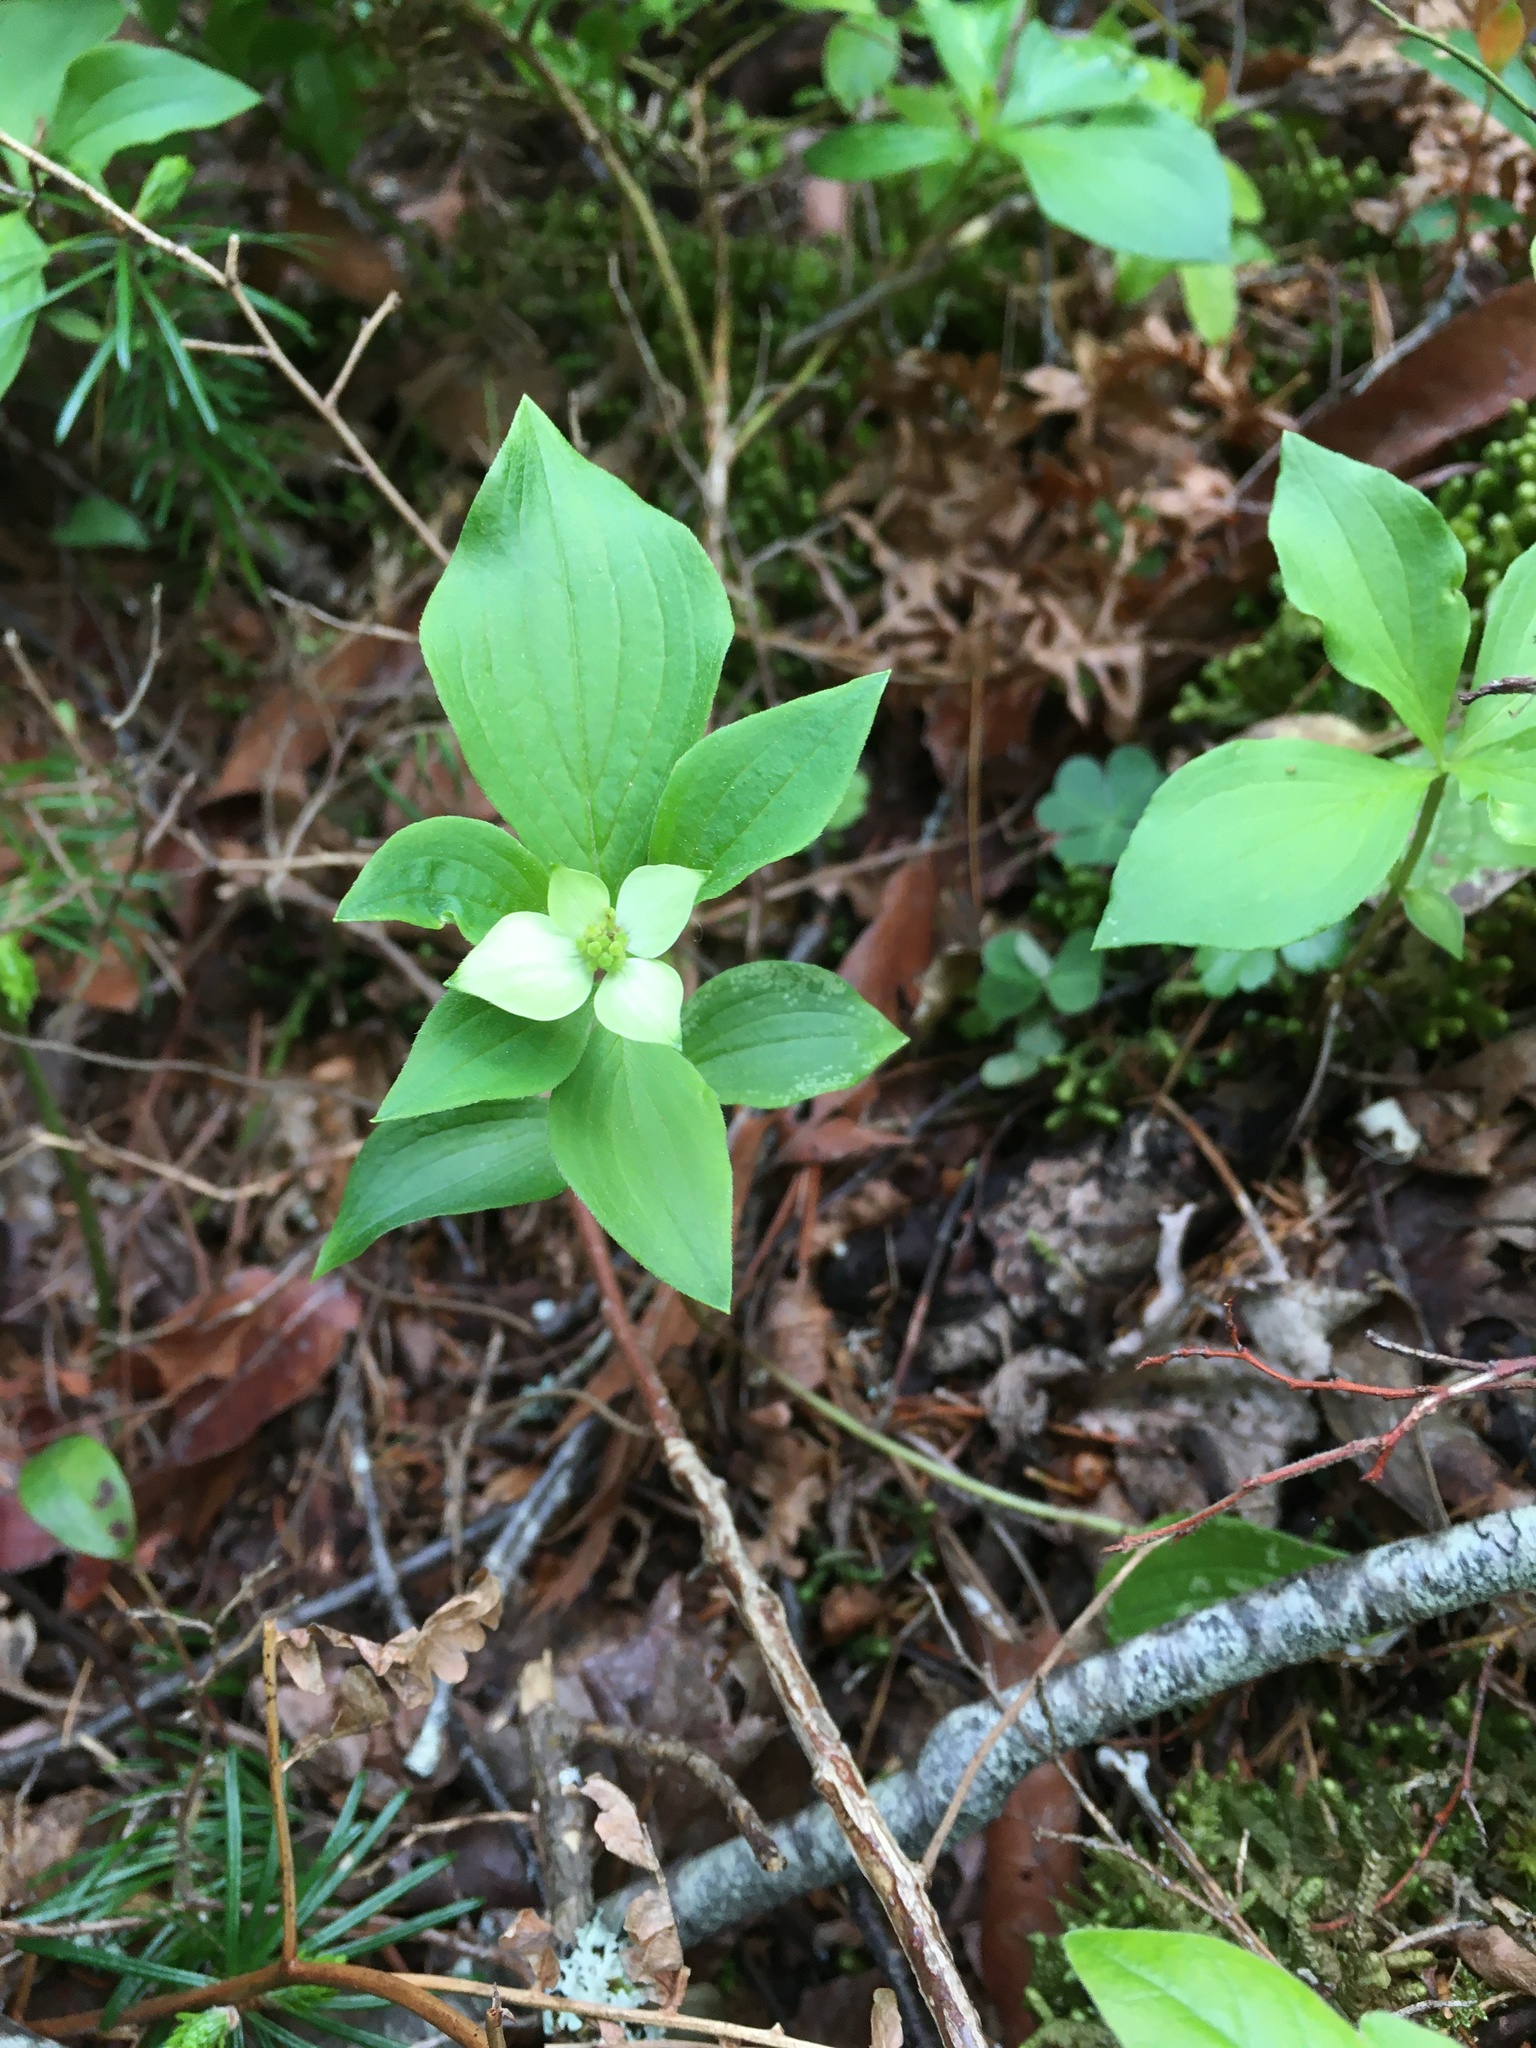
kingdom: Plantae
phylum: Tracheophyta
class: Magnoliopsida
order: Cornales
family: Cornaceae
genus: Cornus
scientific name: Cornus canadensis
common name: Creeping dogwood
